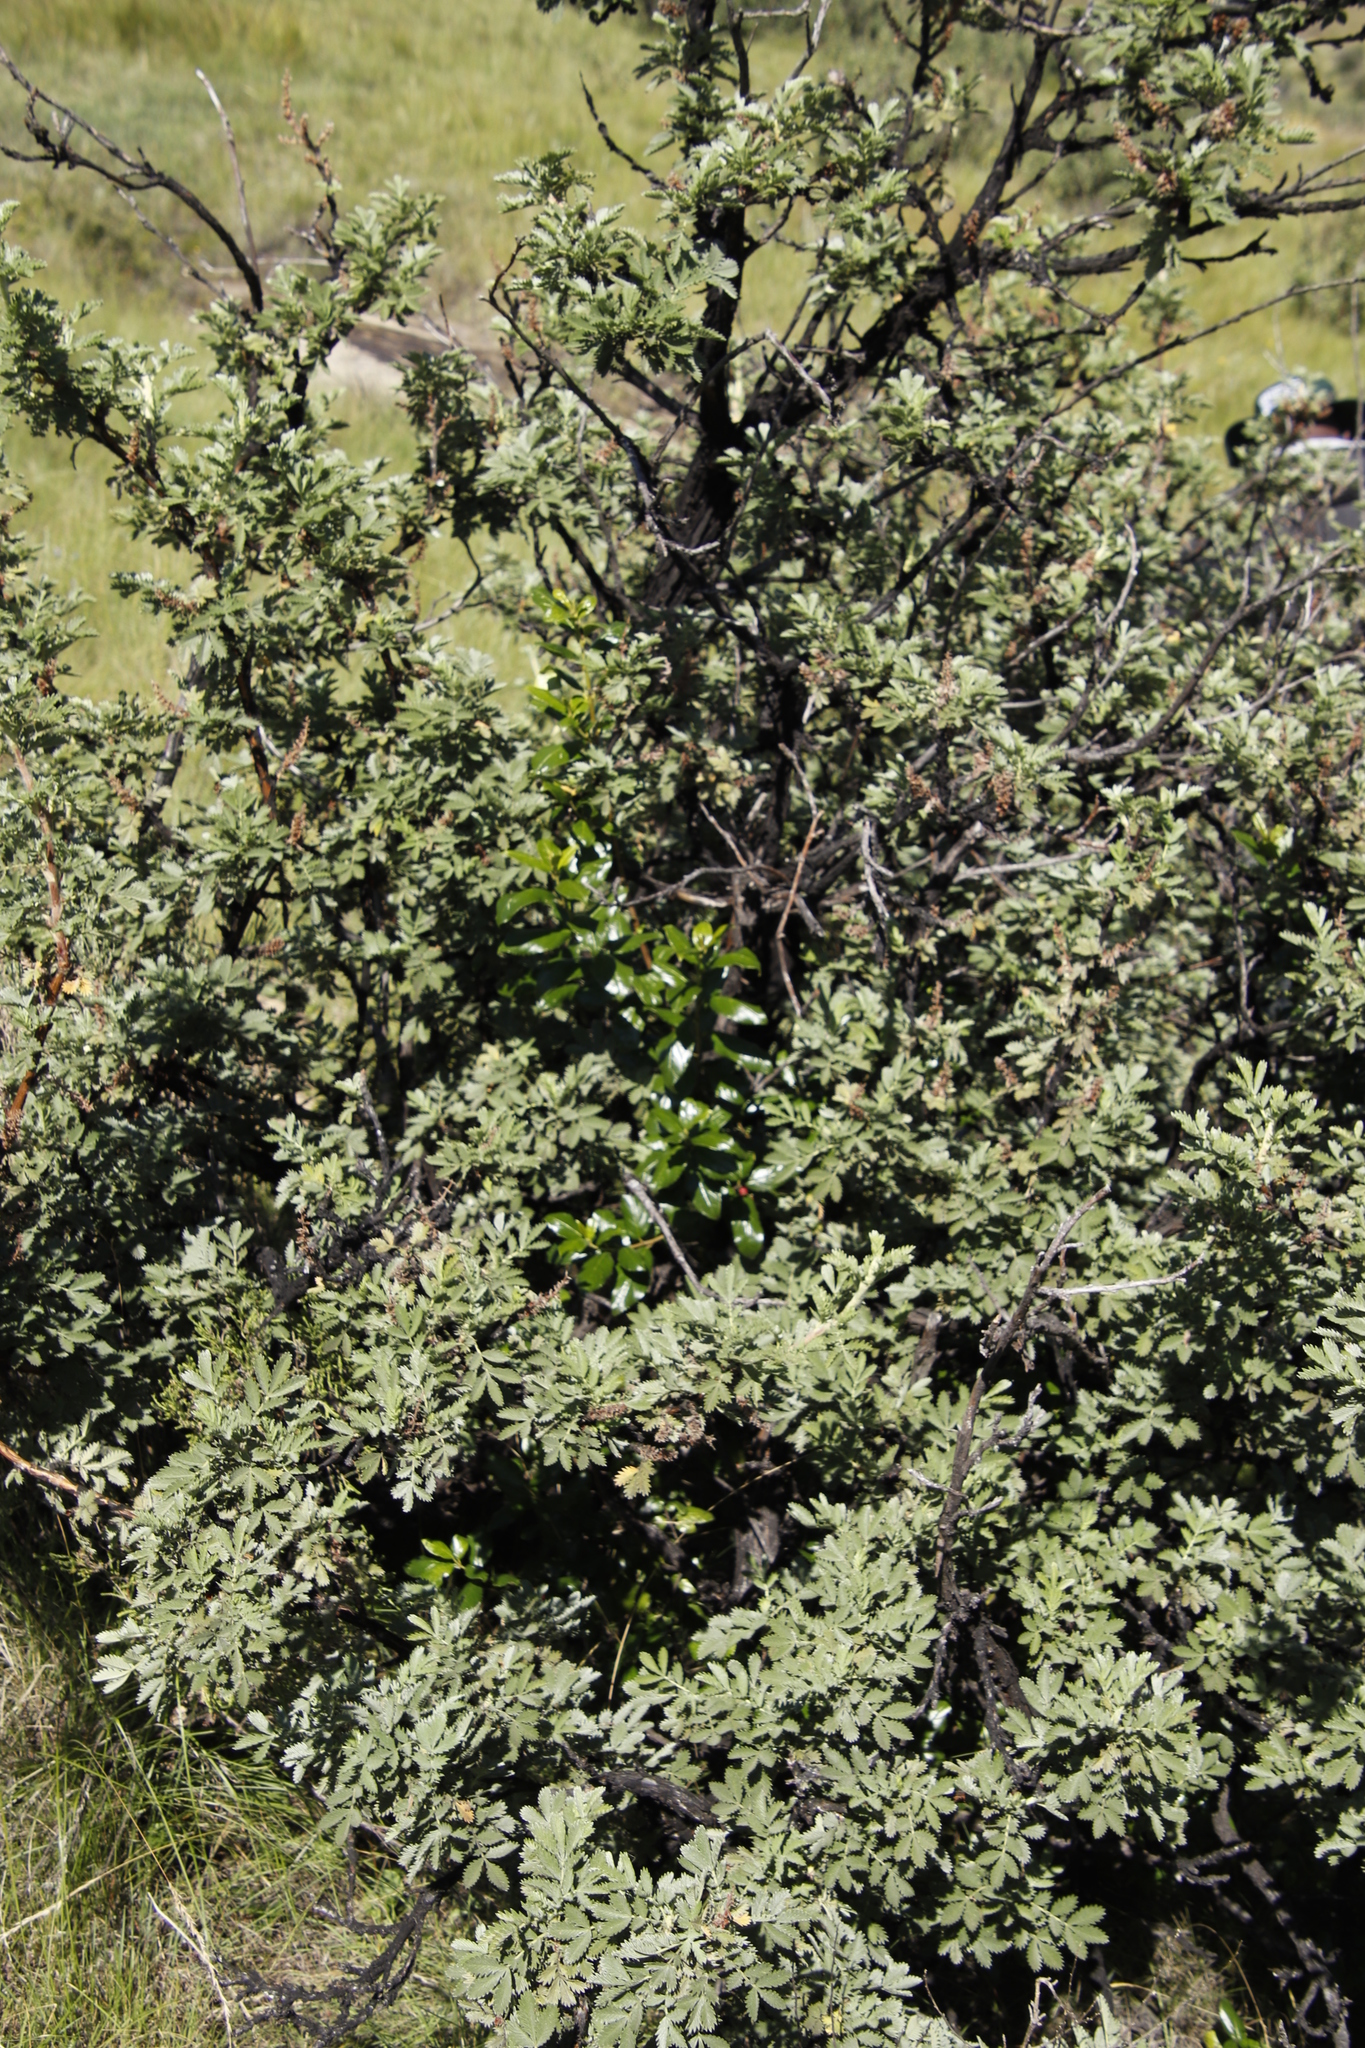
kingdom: Plantae
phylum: Tracheophyta
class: Magnoliopsida
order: Rosales
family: Rhamnaceae
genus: Rhamnus
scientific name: Rhamnus prinoides
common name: Dogwood
